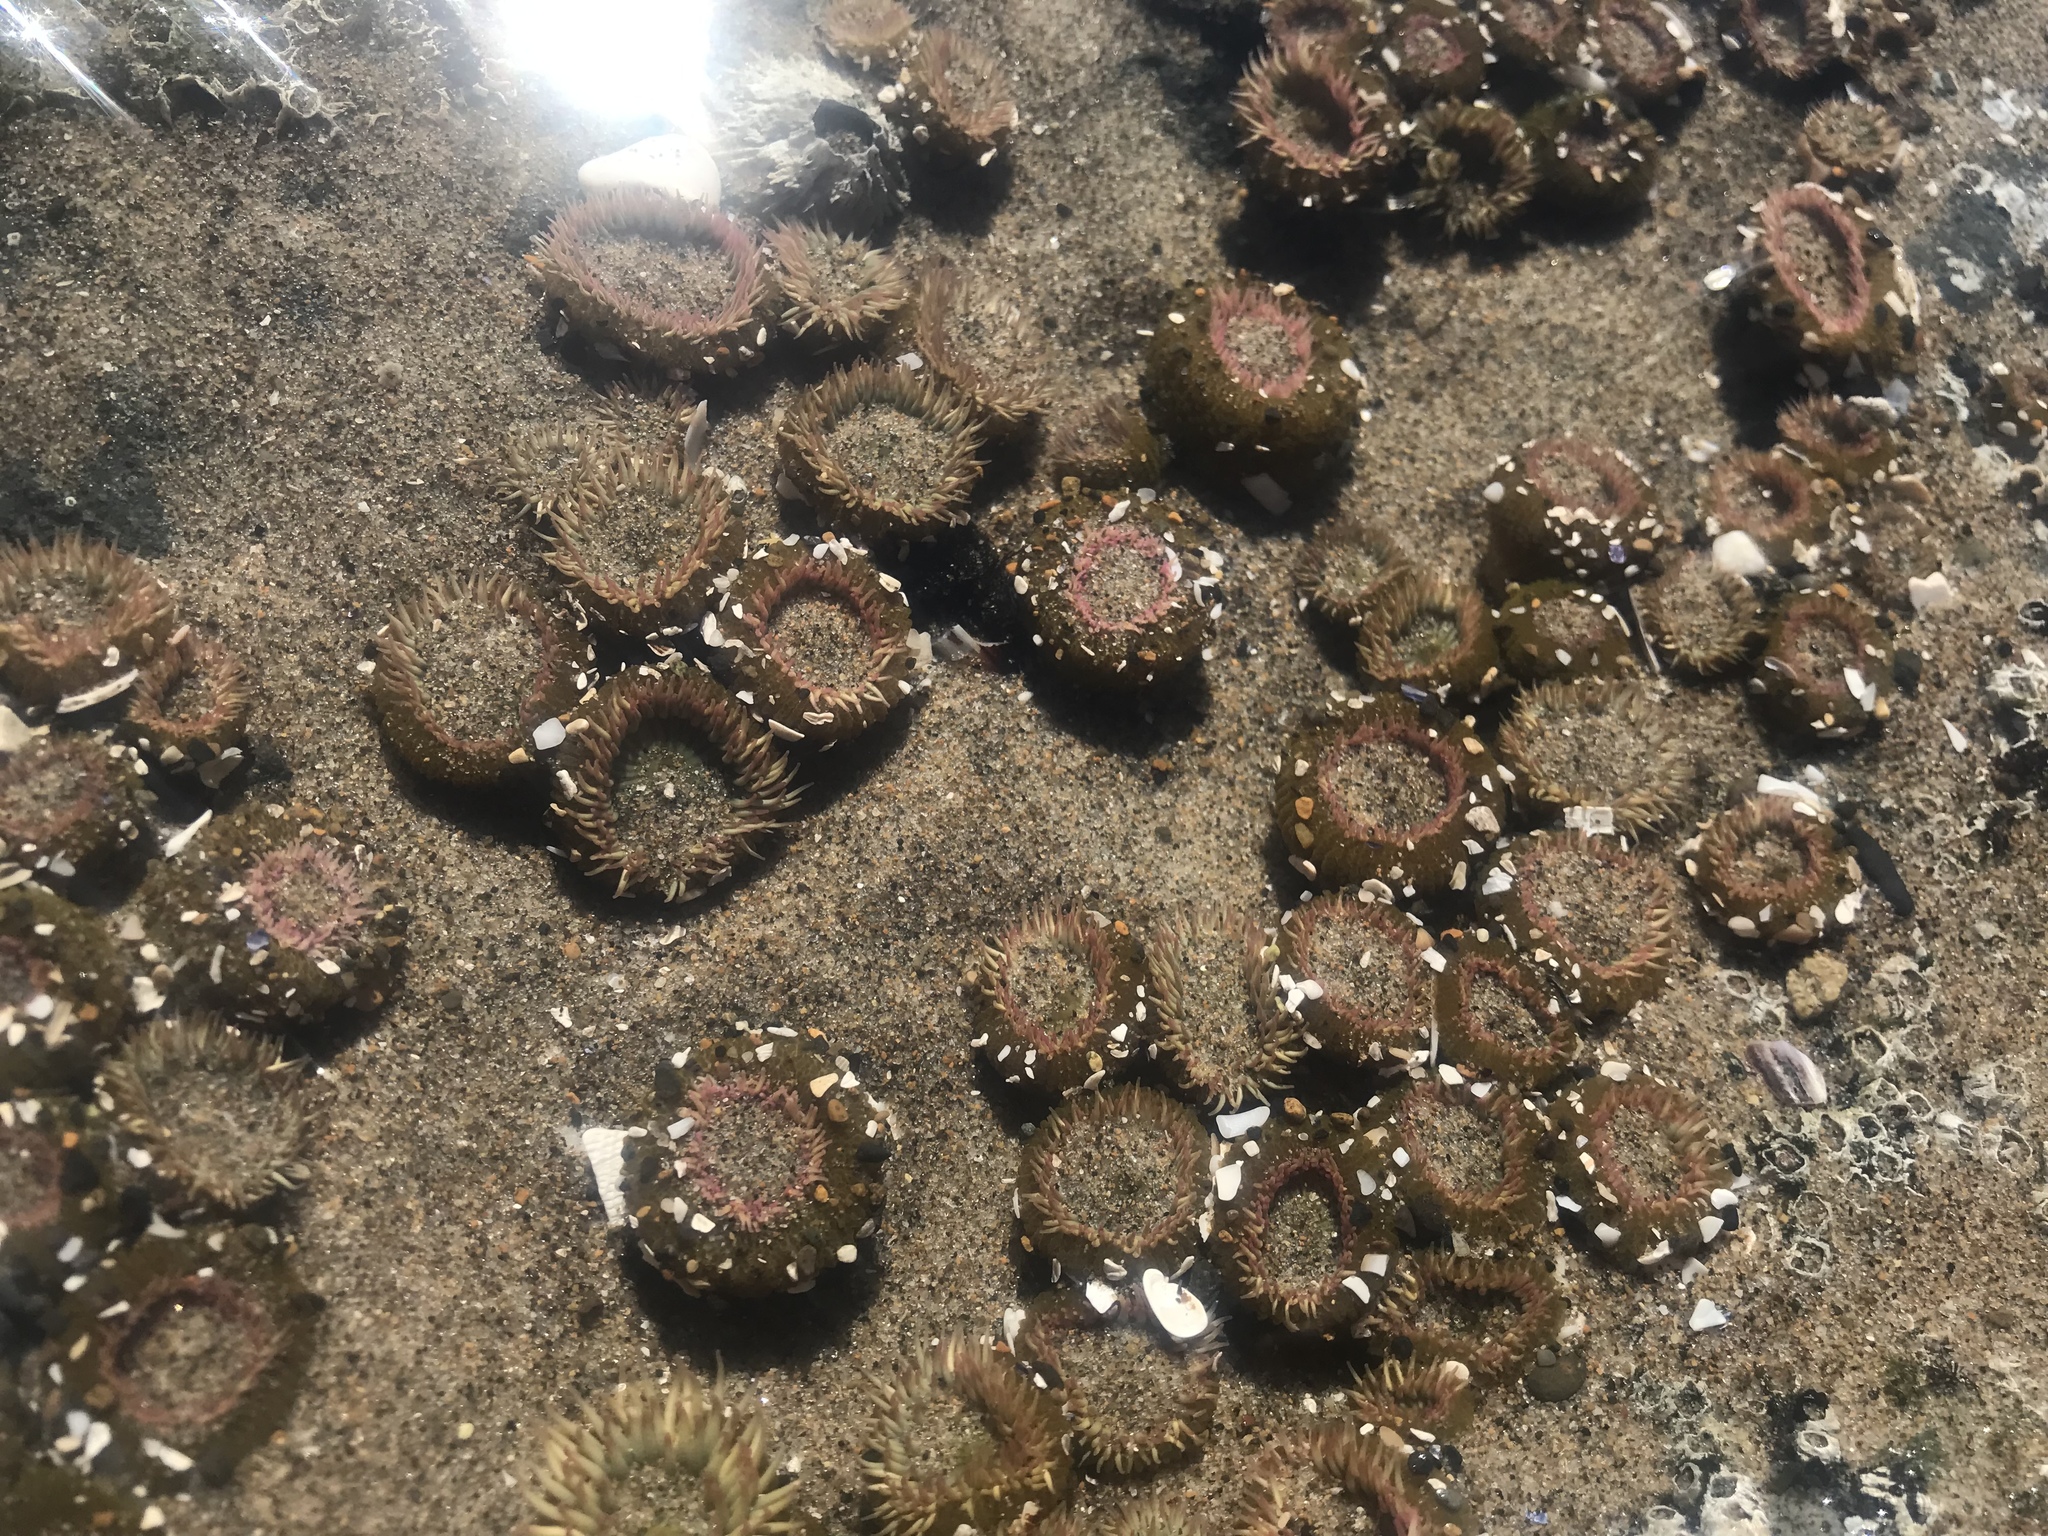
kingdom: Animalia
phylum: Cnidaria
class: Anthozoa
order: Actiniaria
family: Actiniidae
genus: Anthopleura
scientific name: Anthopleura elegantissima
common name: Clonal anemone
